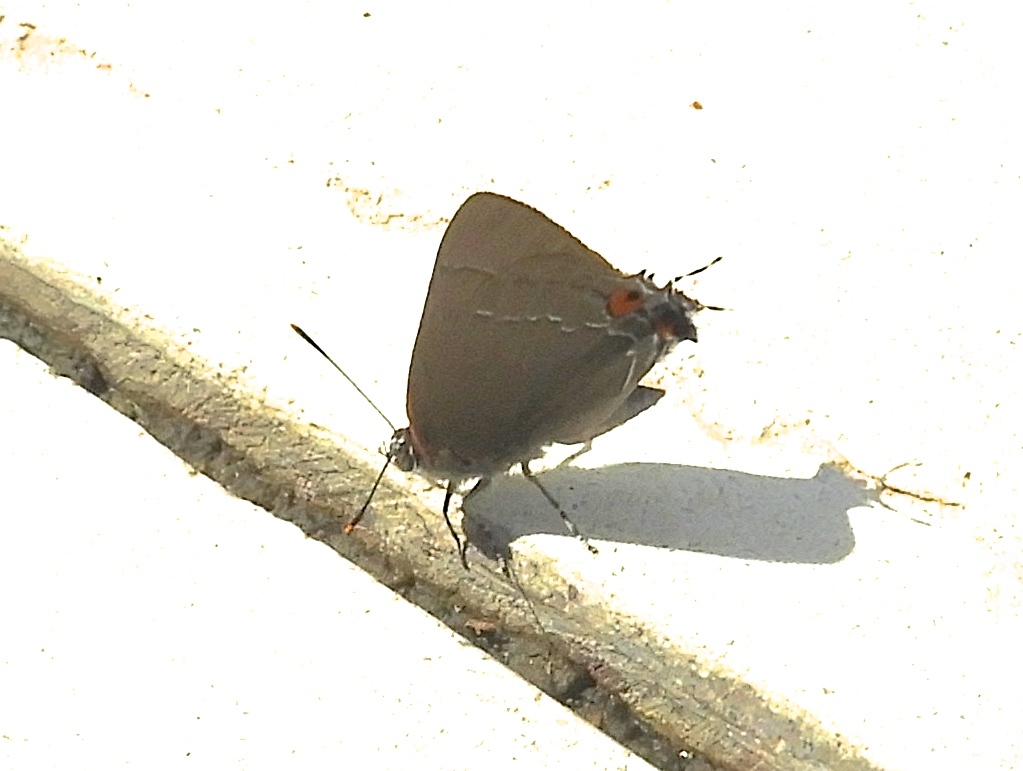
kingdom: Animalia
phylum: Arthropoda
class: Insecta
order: Lepidoptera
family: Lycaenidae
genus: Thecla
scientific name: Thecla marius
